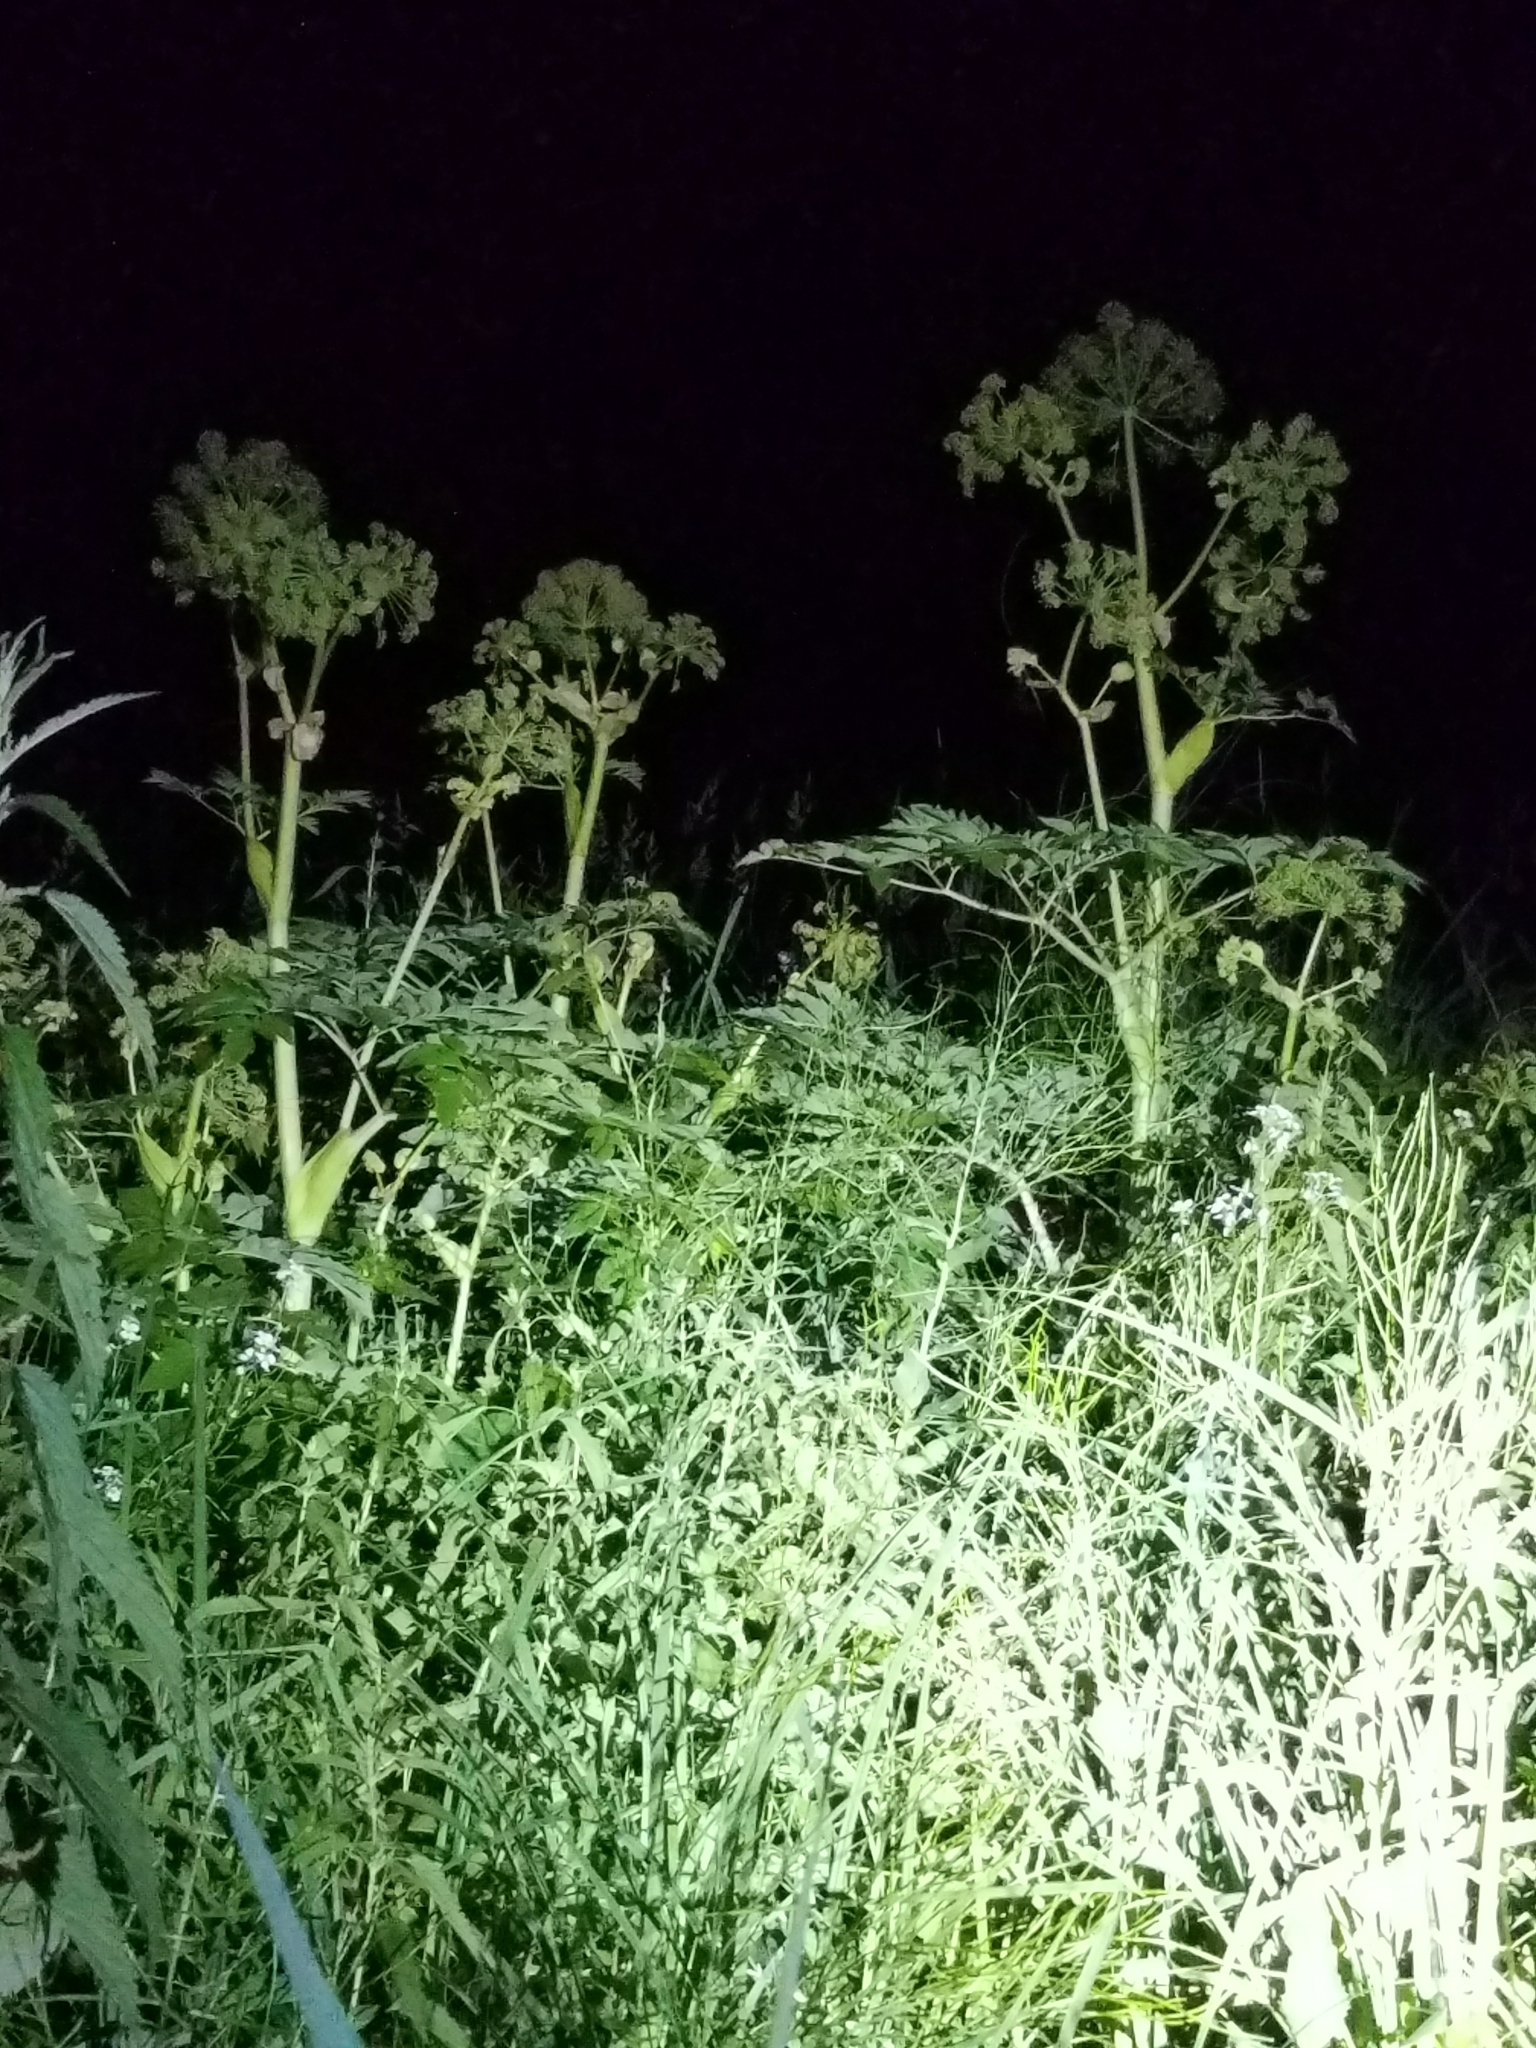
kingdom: Plantae
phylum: Tracheophyta
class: Magnoliopsida
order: Apiales
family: Apiaceae
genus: Angelica
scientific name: Angelica atropurpurea
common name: Great angelica
